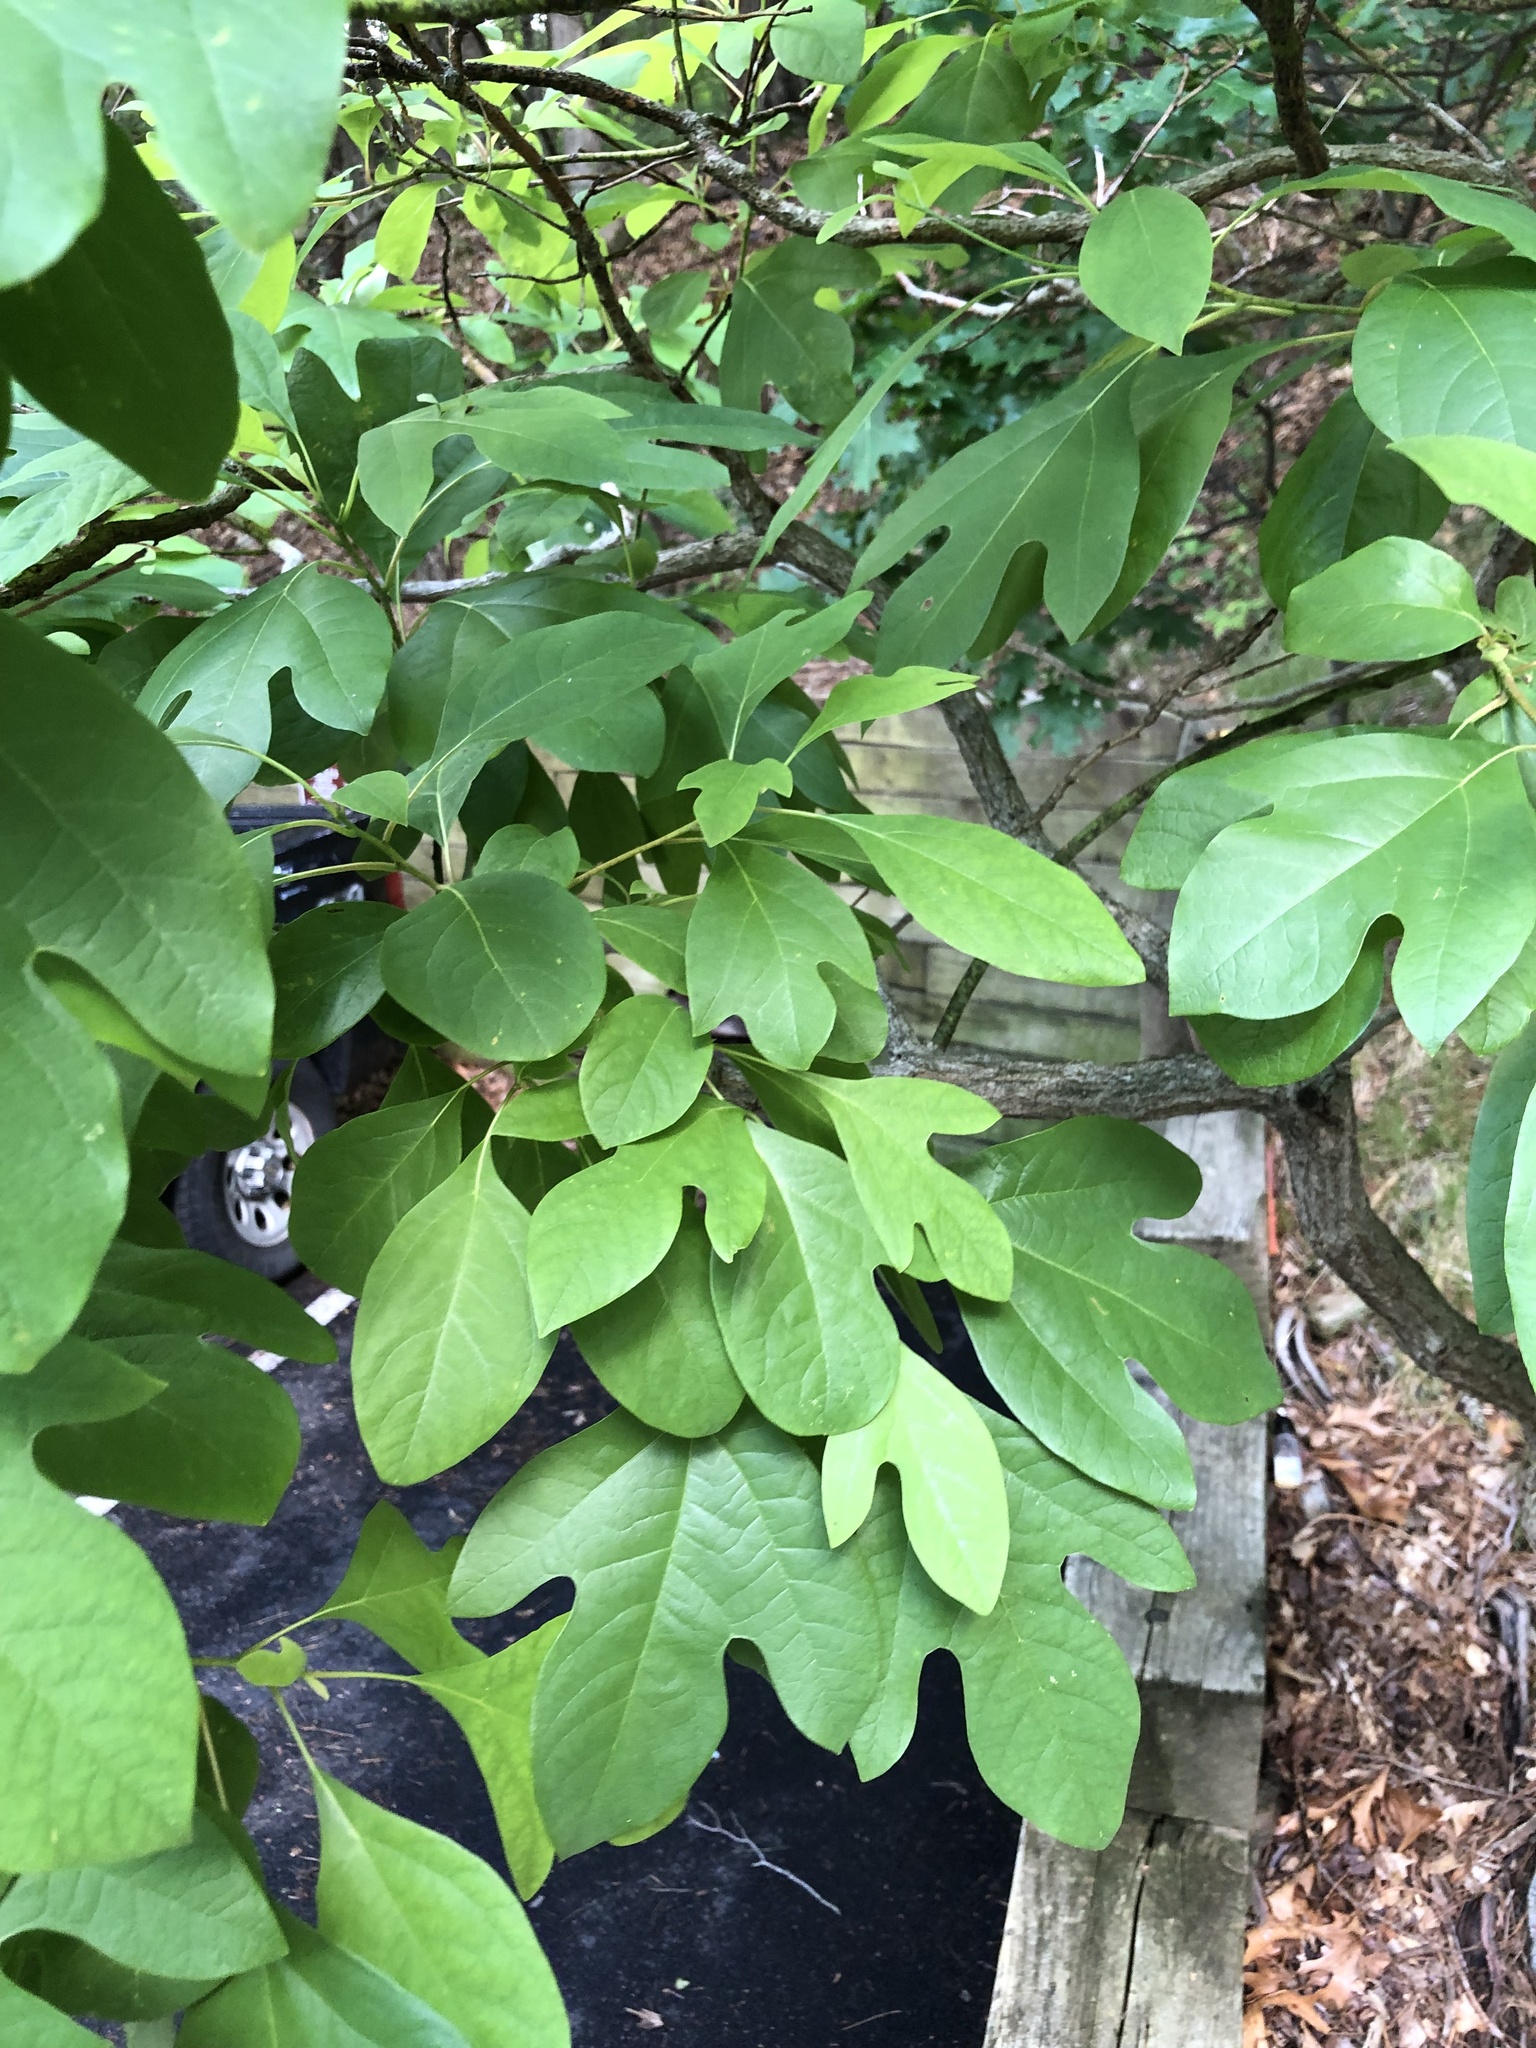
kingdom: Plantae
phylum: Tracheophyta
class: Magnoliopsida
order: Laurales
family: Lauraceae
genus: Sassafras
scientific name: Sassafras albidum
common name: Sassafras
